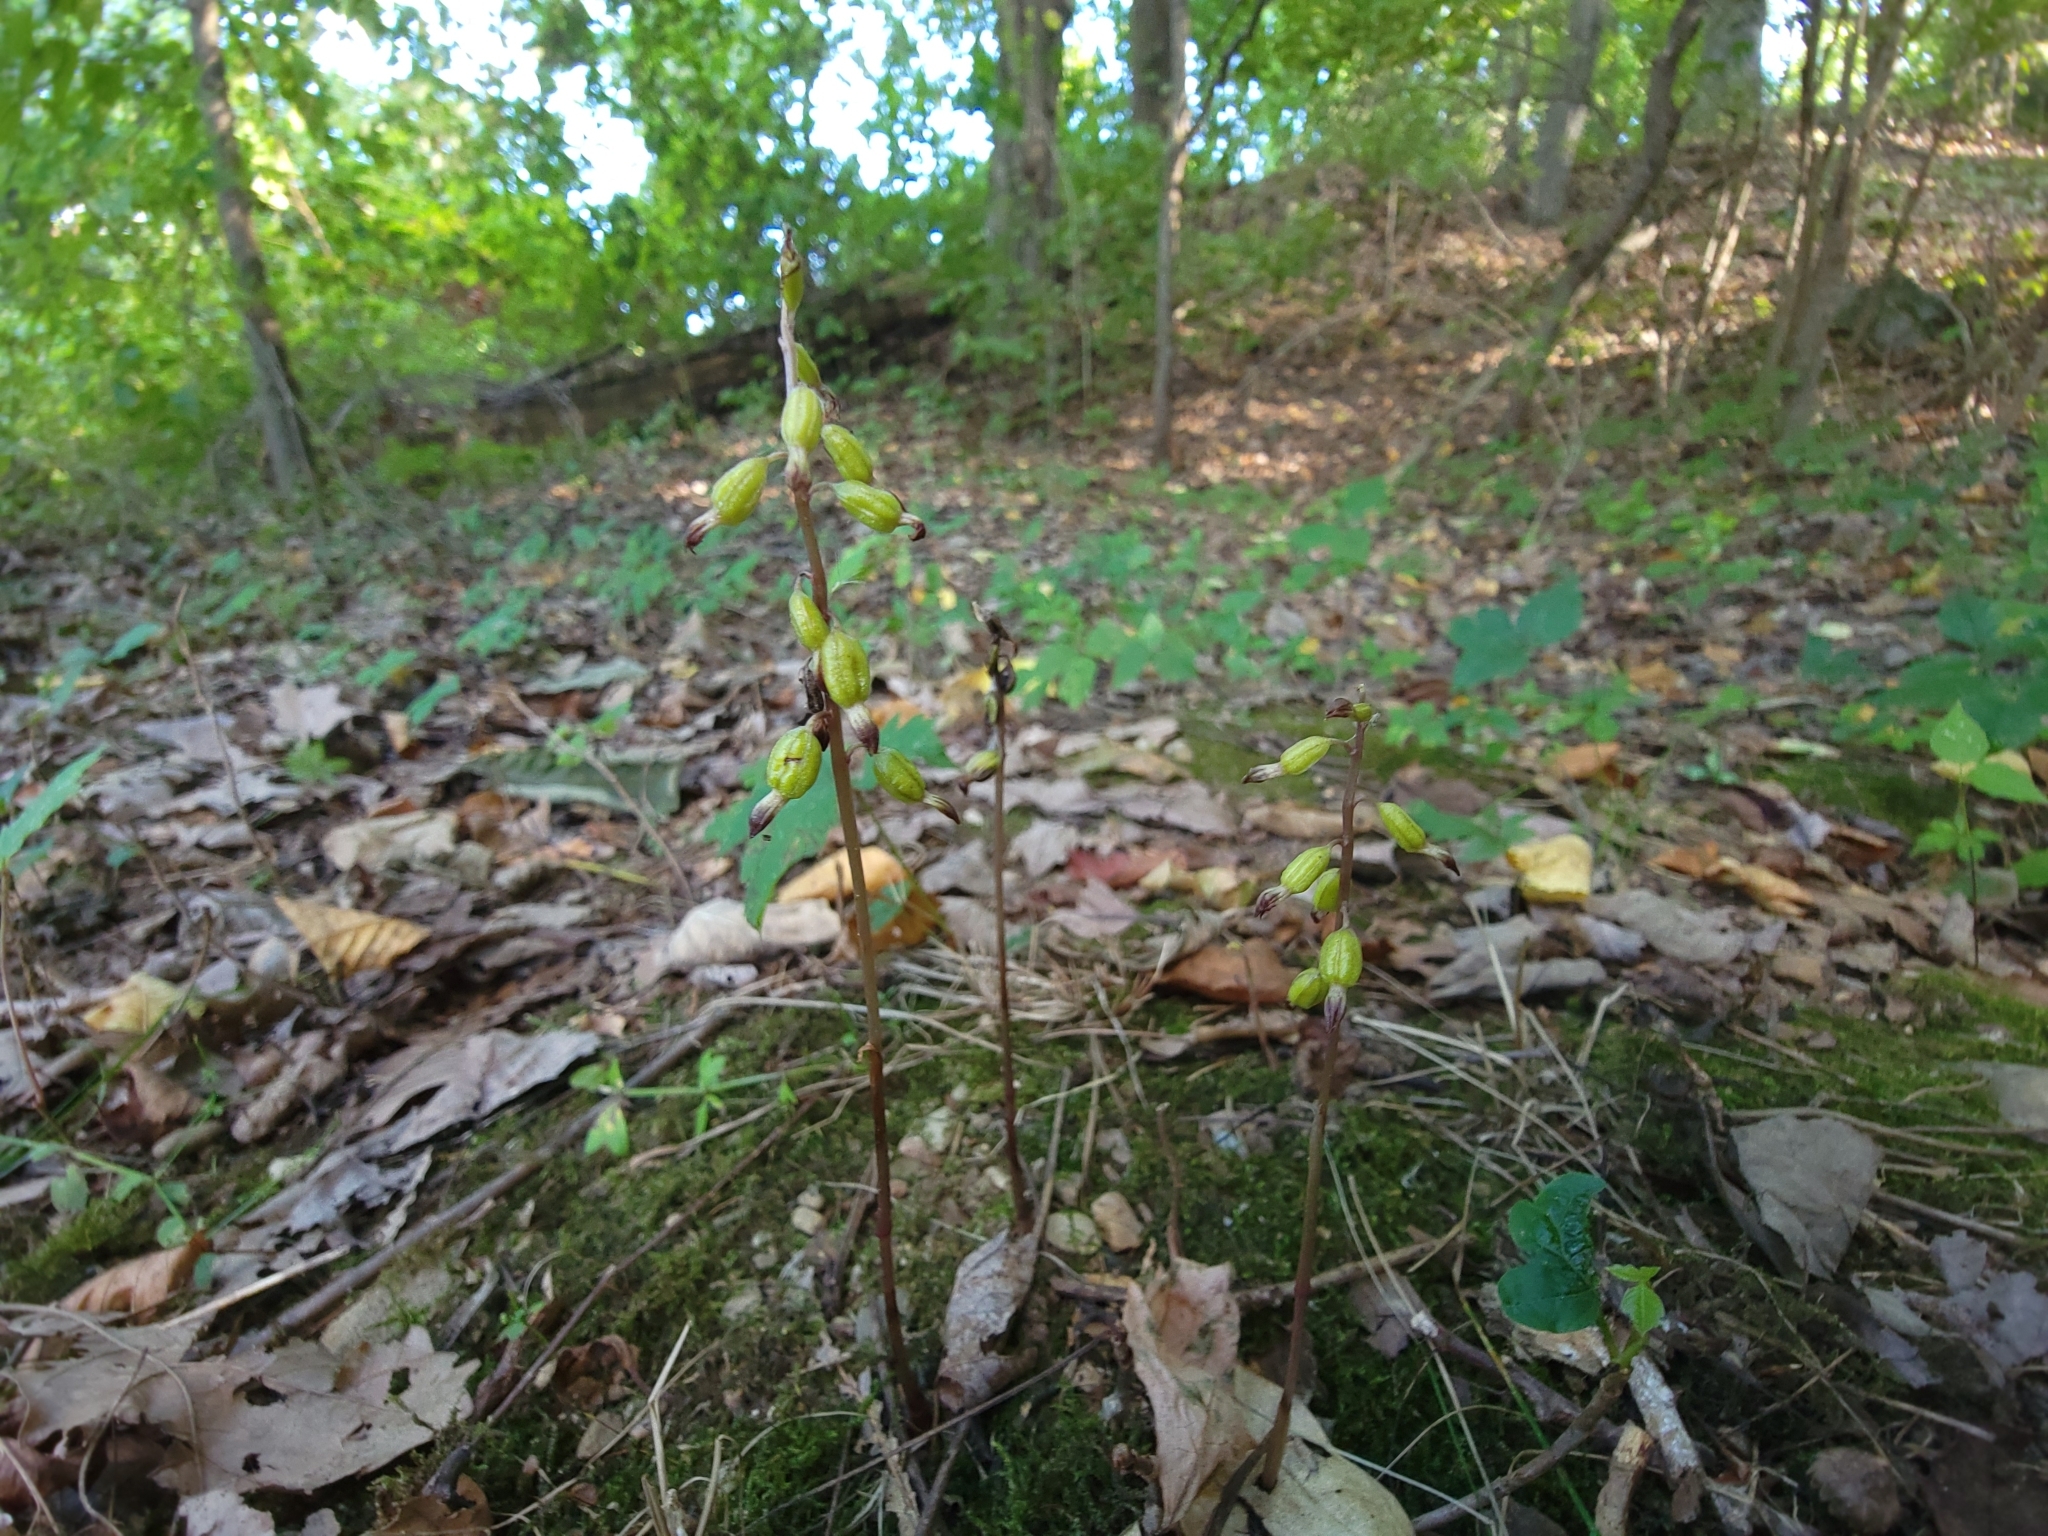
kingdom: Plantae
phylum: Tracheophyta
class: Liliopsida
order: Asparagales
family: Orchidaceae
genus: Corallorhiza
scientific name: Corallorhiza odontorhiza
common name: Autumn coralroot
